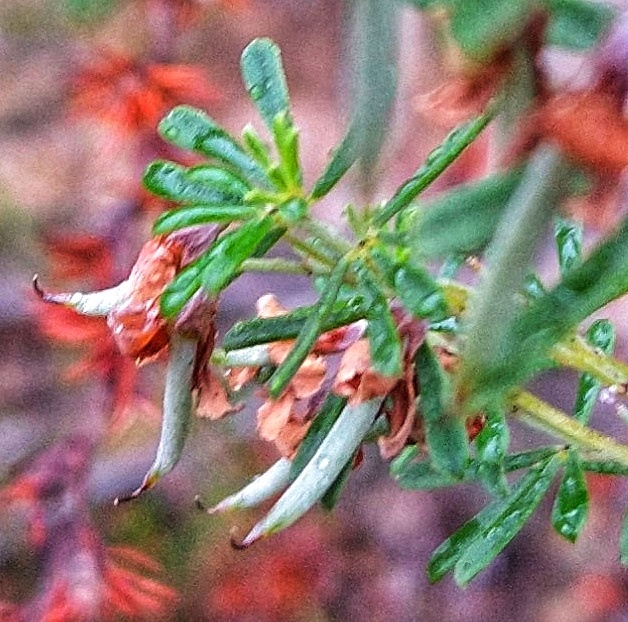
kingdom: Plantae
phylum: Tracheophyta
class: Magnoliopsida
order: Fabales
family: Fabaceae
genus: Indigofera
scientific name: Indigofera flabellata
